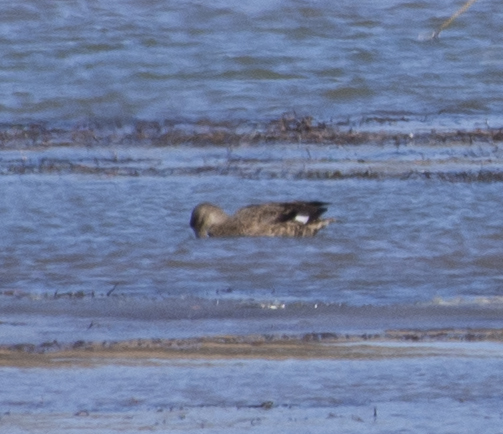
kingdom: Animalia
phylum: Chordata
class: Aves
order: Anseriformes
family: Anatidae
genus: Mareca
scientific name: Mareca strepera
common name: Gadwall
